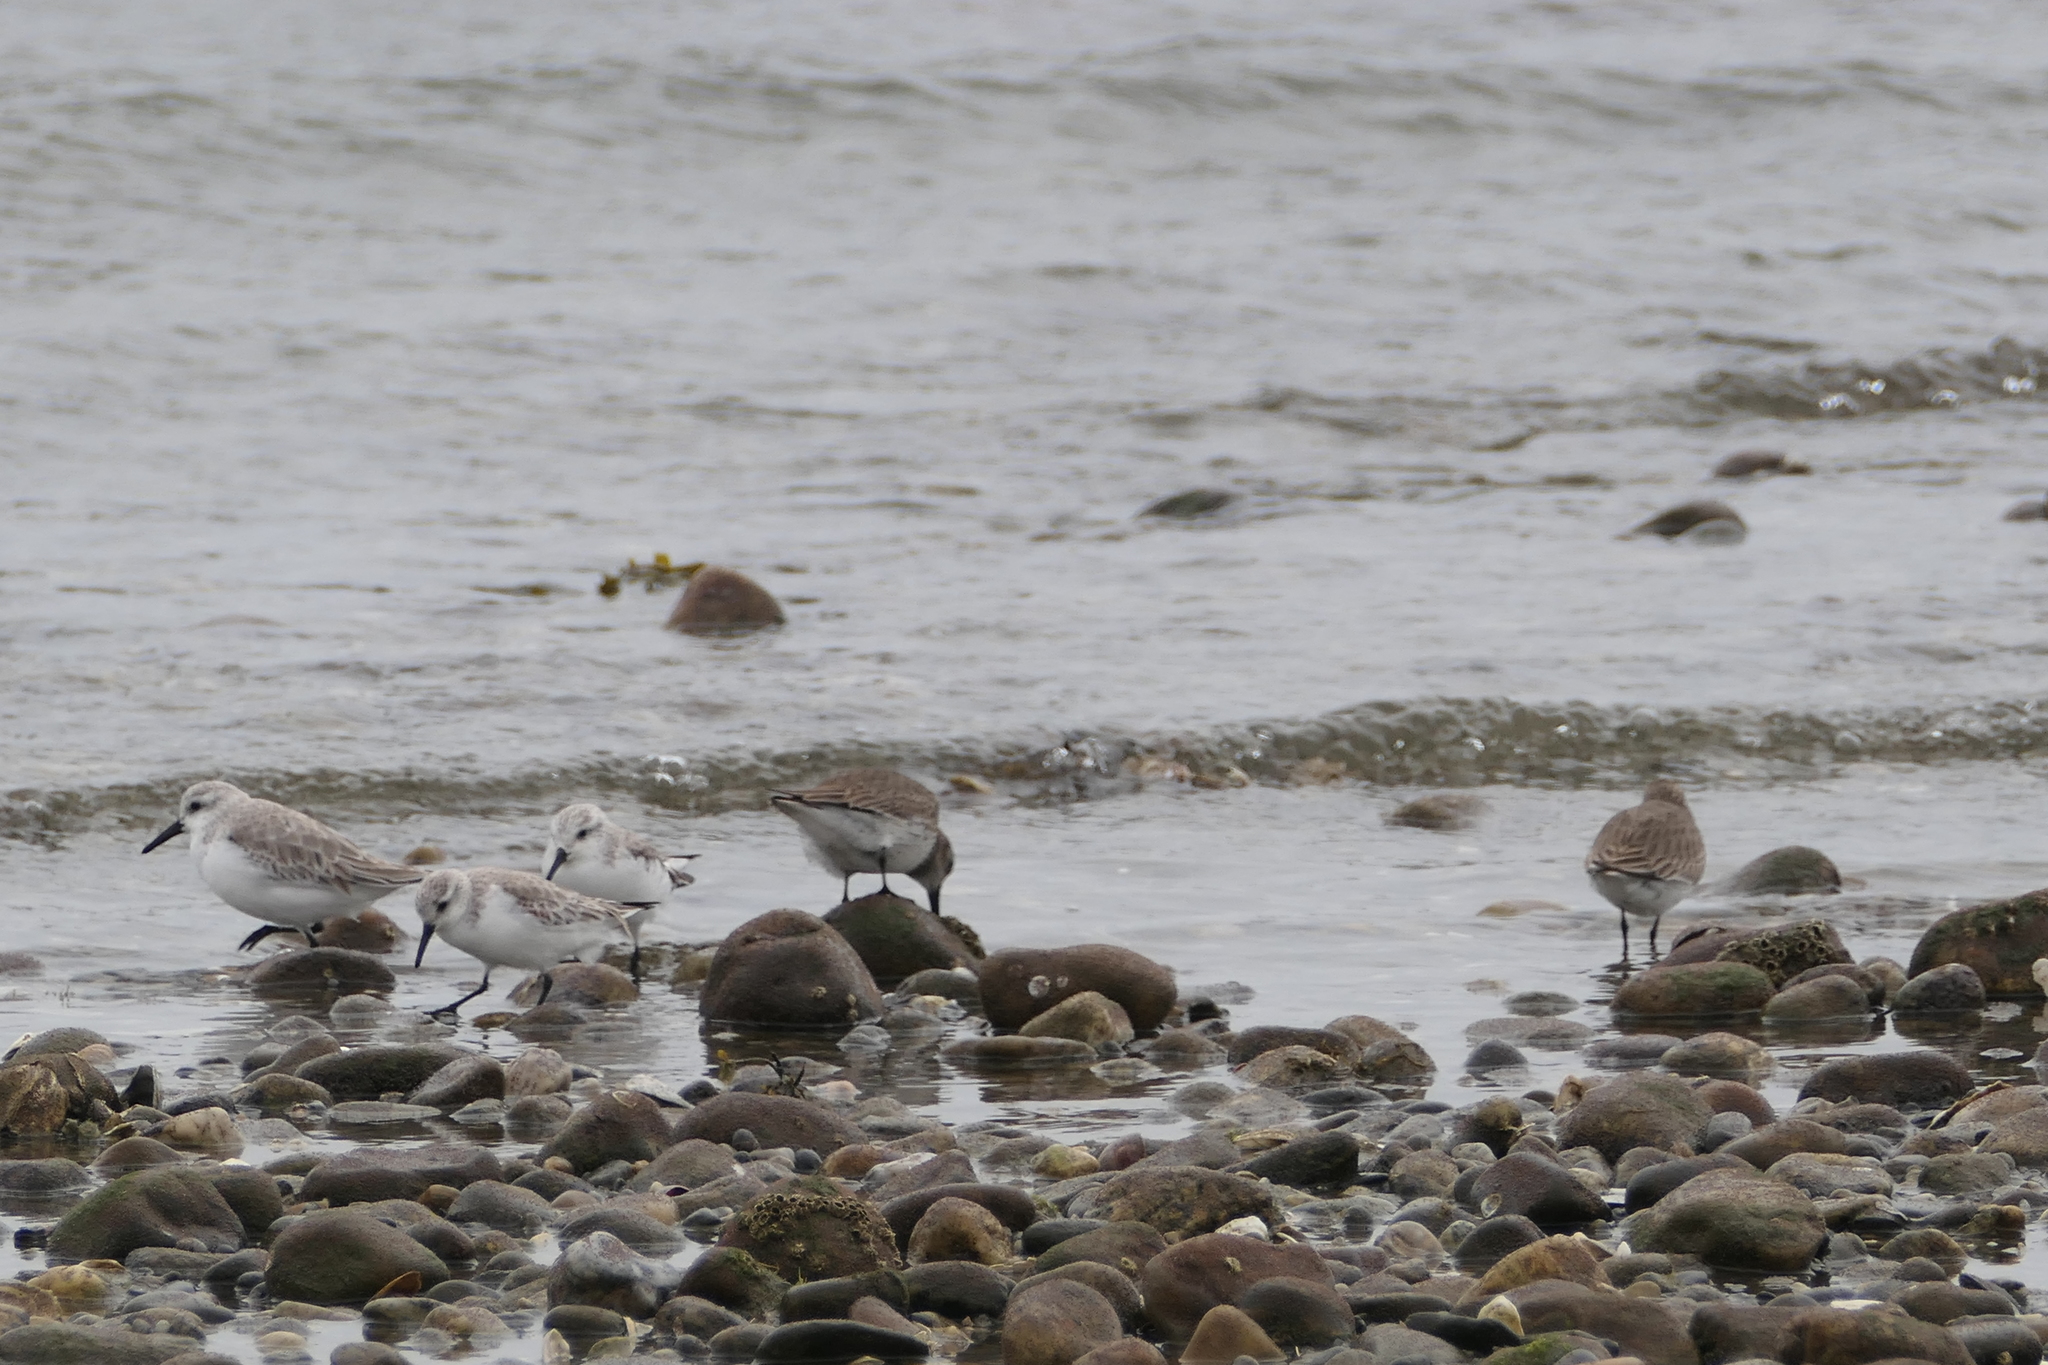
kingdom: Animalia
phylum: Chordata
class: Aves
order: Charadriiformes
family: Scolopacidae
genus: Calidris
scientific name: Calidris alba
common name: Sanderling
